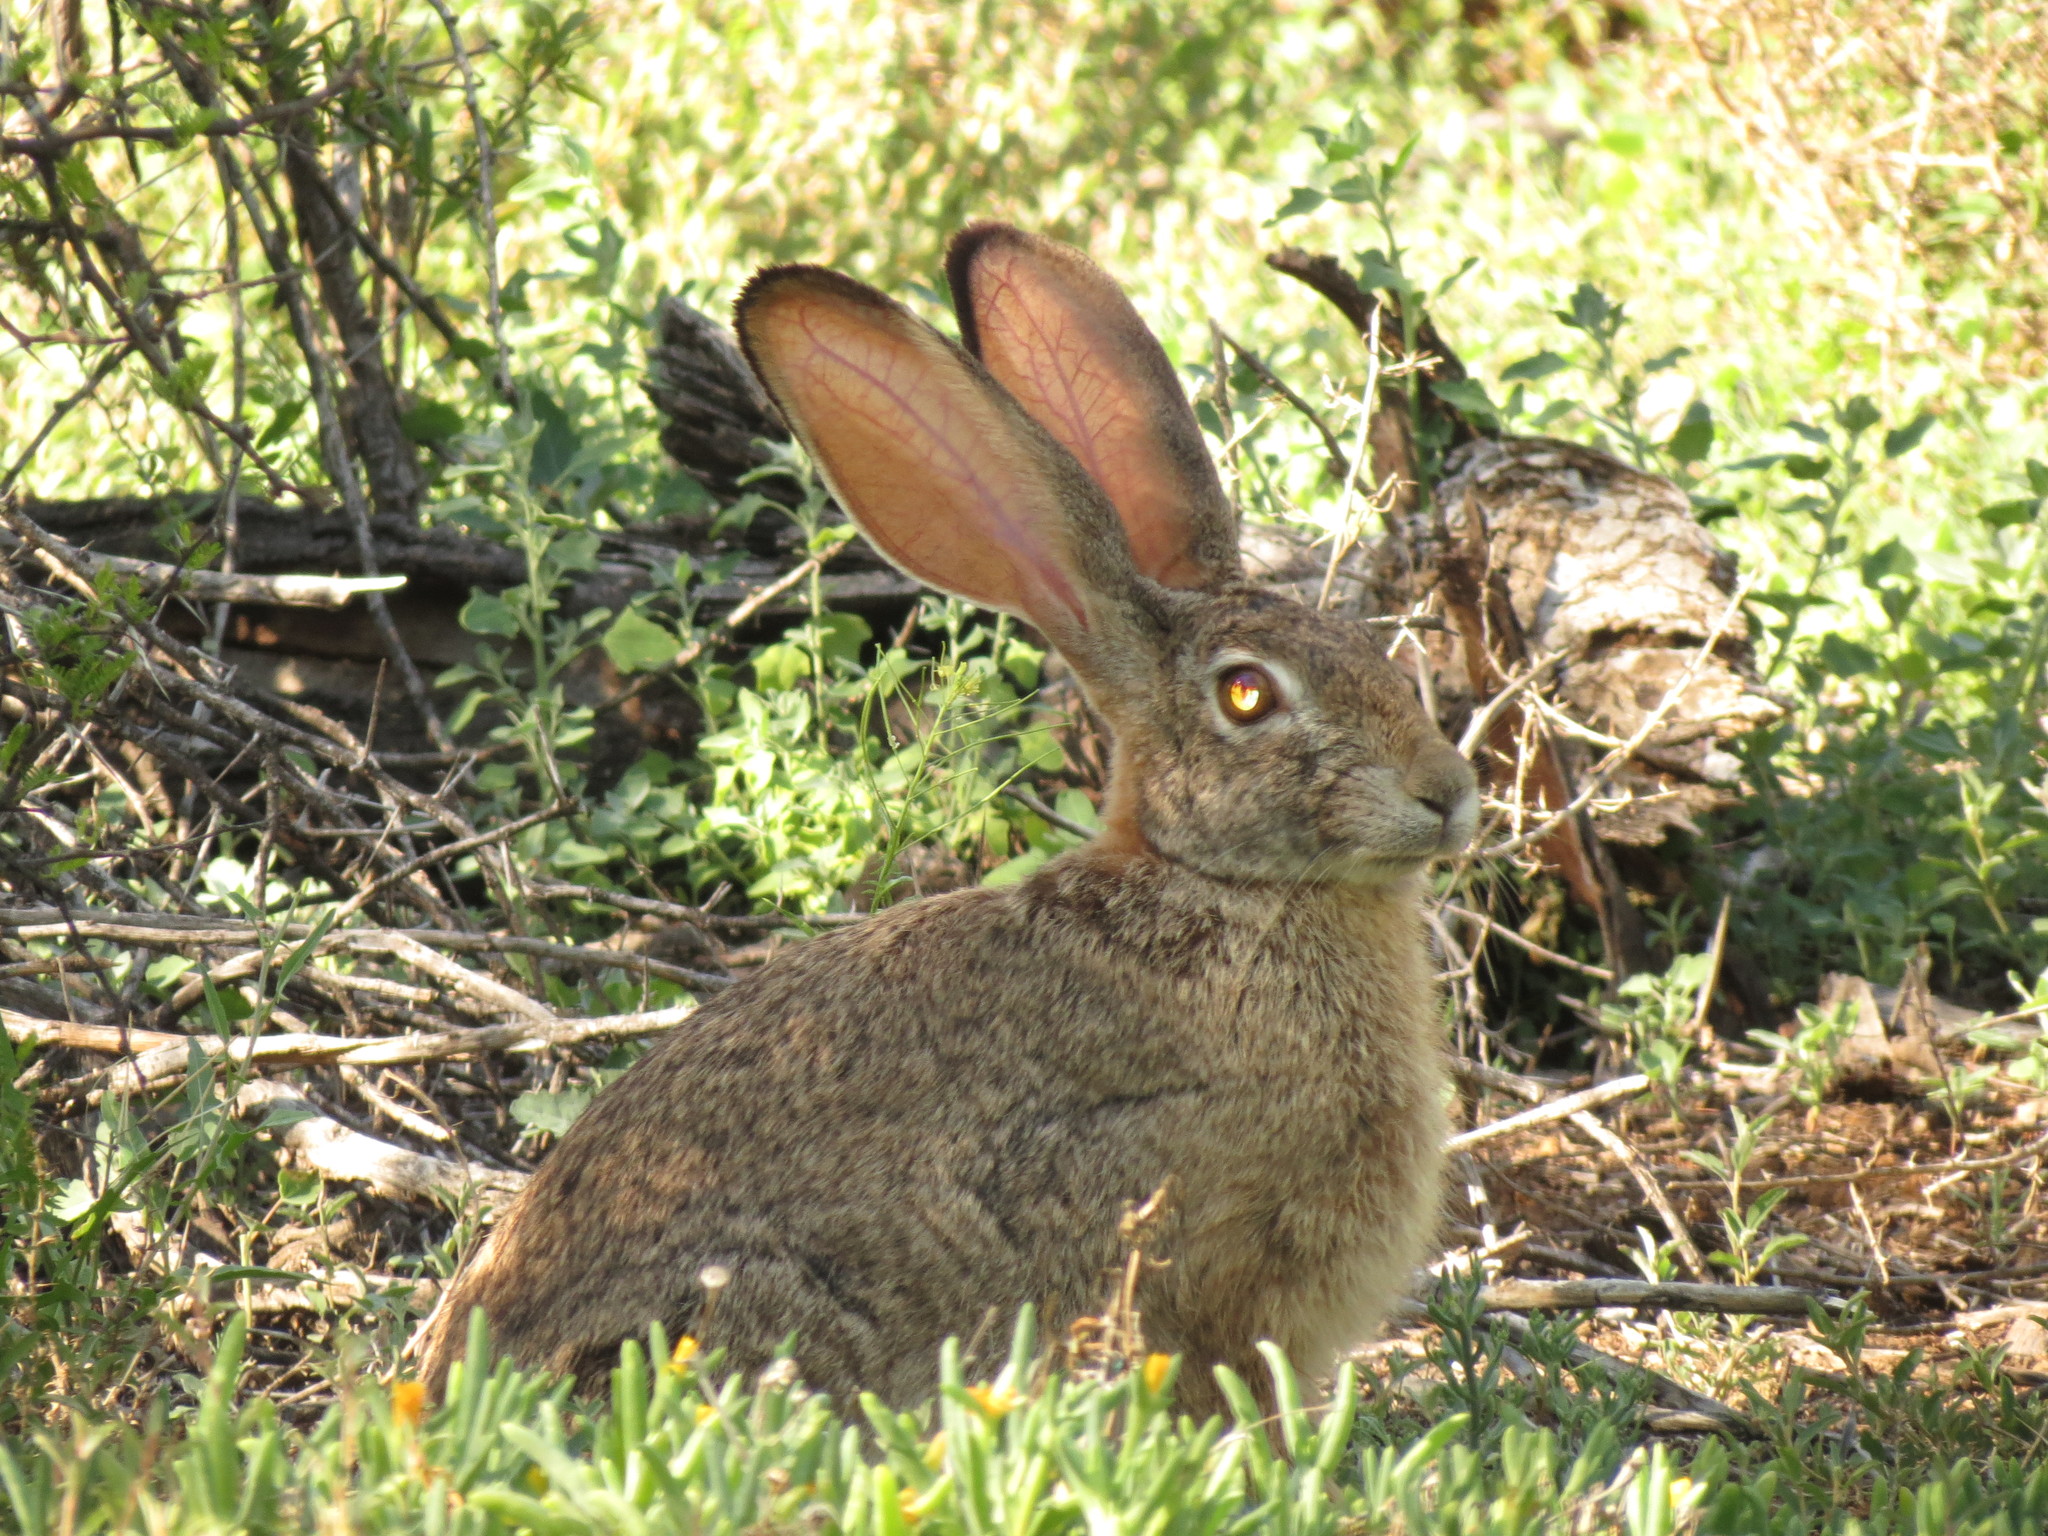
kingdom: Animalia
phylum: Chordata
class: Mammalia
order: Lagomorpha
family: Leporidae
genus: Lepus
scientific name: Lepus saxatilis
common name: Scrub hare
